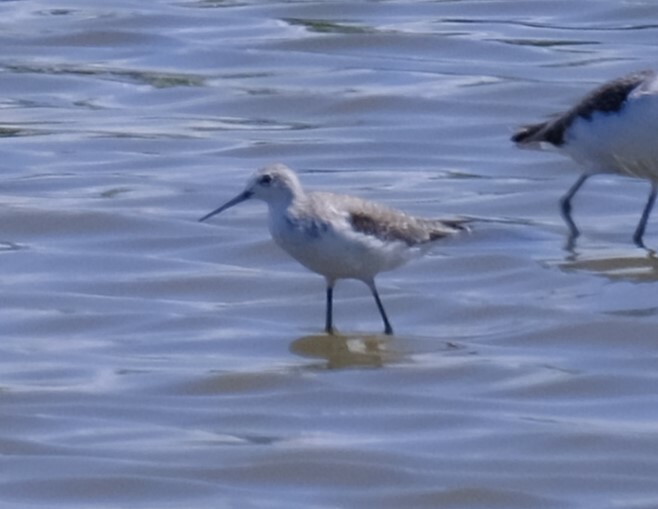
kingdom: Animalia
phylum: Chordata
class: Aves
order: Charadriiformes
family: Scolopacidae
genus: Tringa
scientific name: Tringa stagnatilis
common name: Marsh sandpiper
